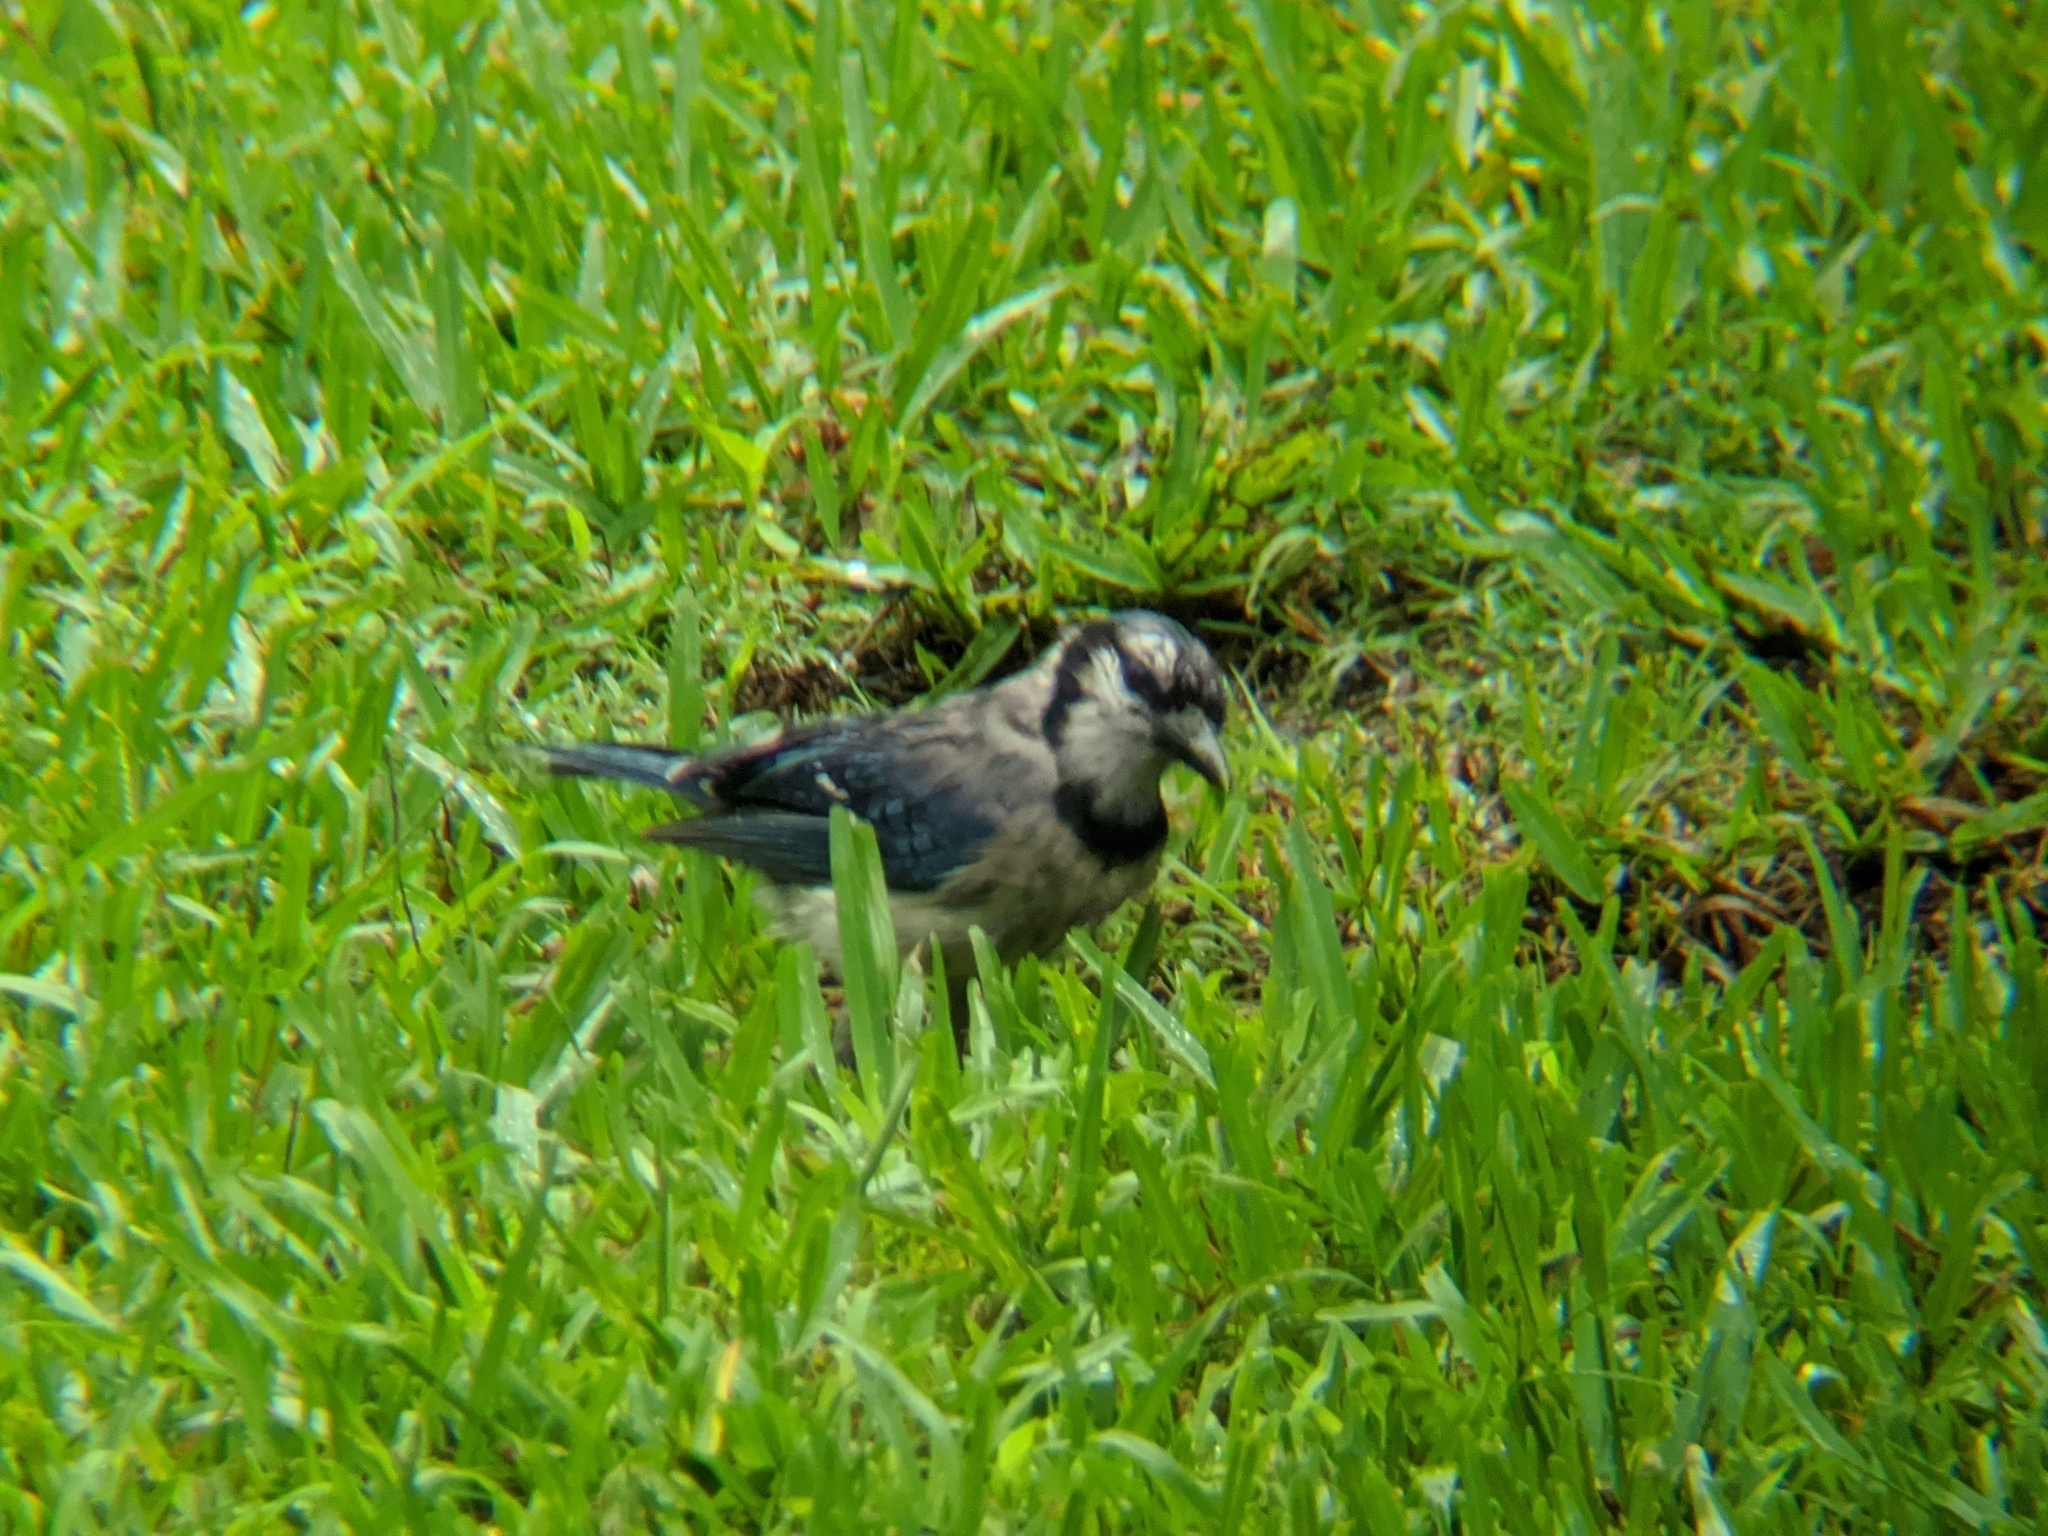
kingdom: Animalia
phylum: Chordata
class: Aves
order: Passeriformes
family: Corvidae
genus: Cyanocitta
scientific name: Cyanocitta cristata
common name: Blue jay
